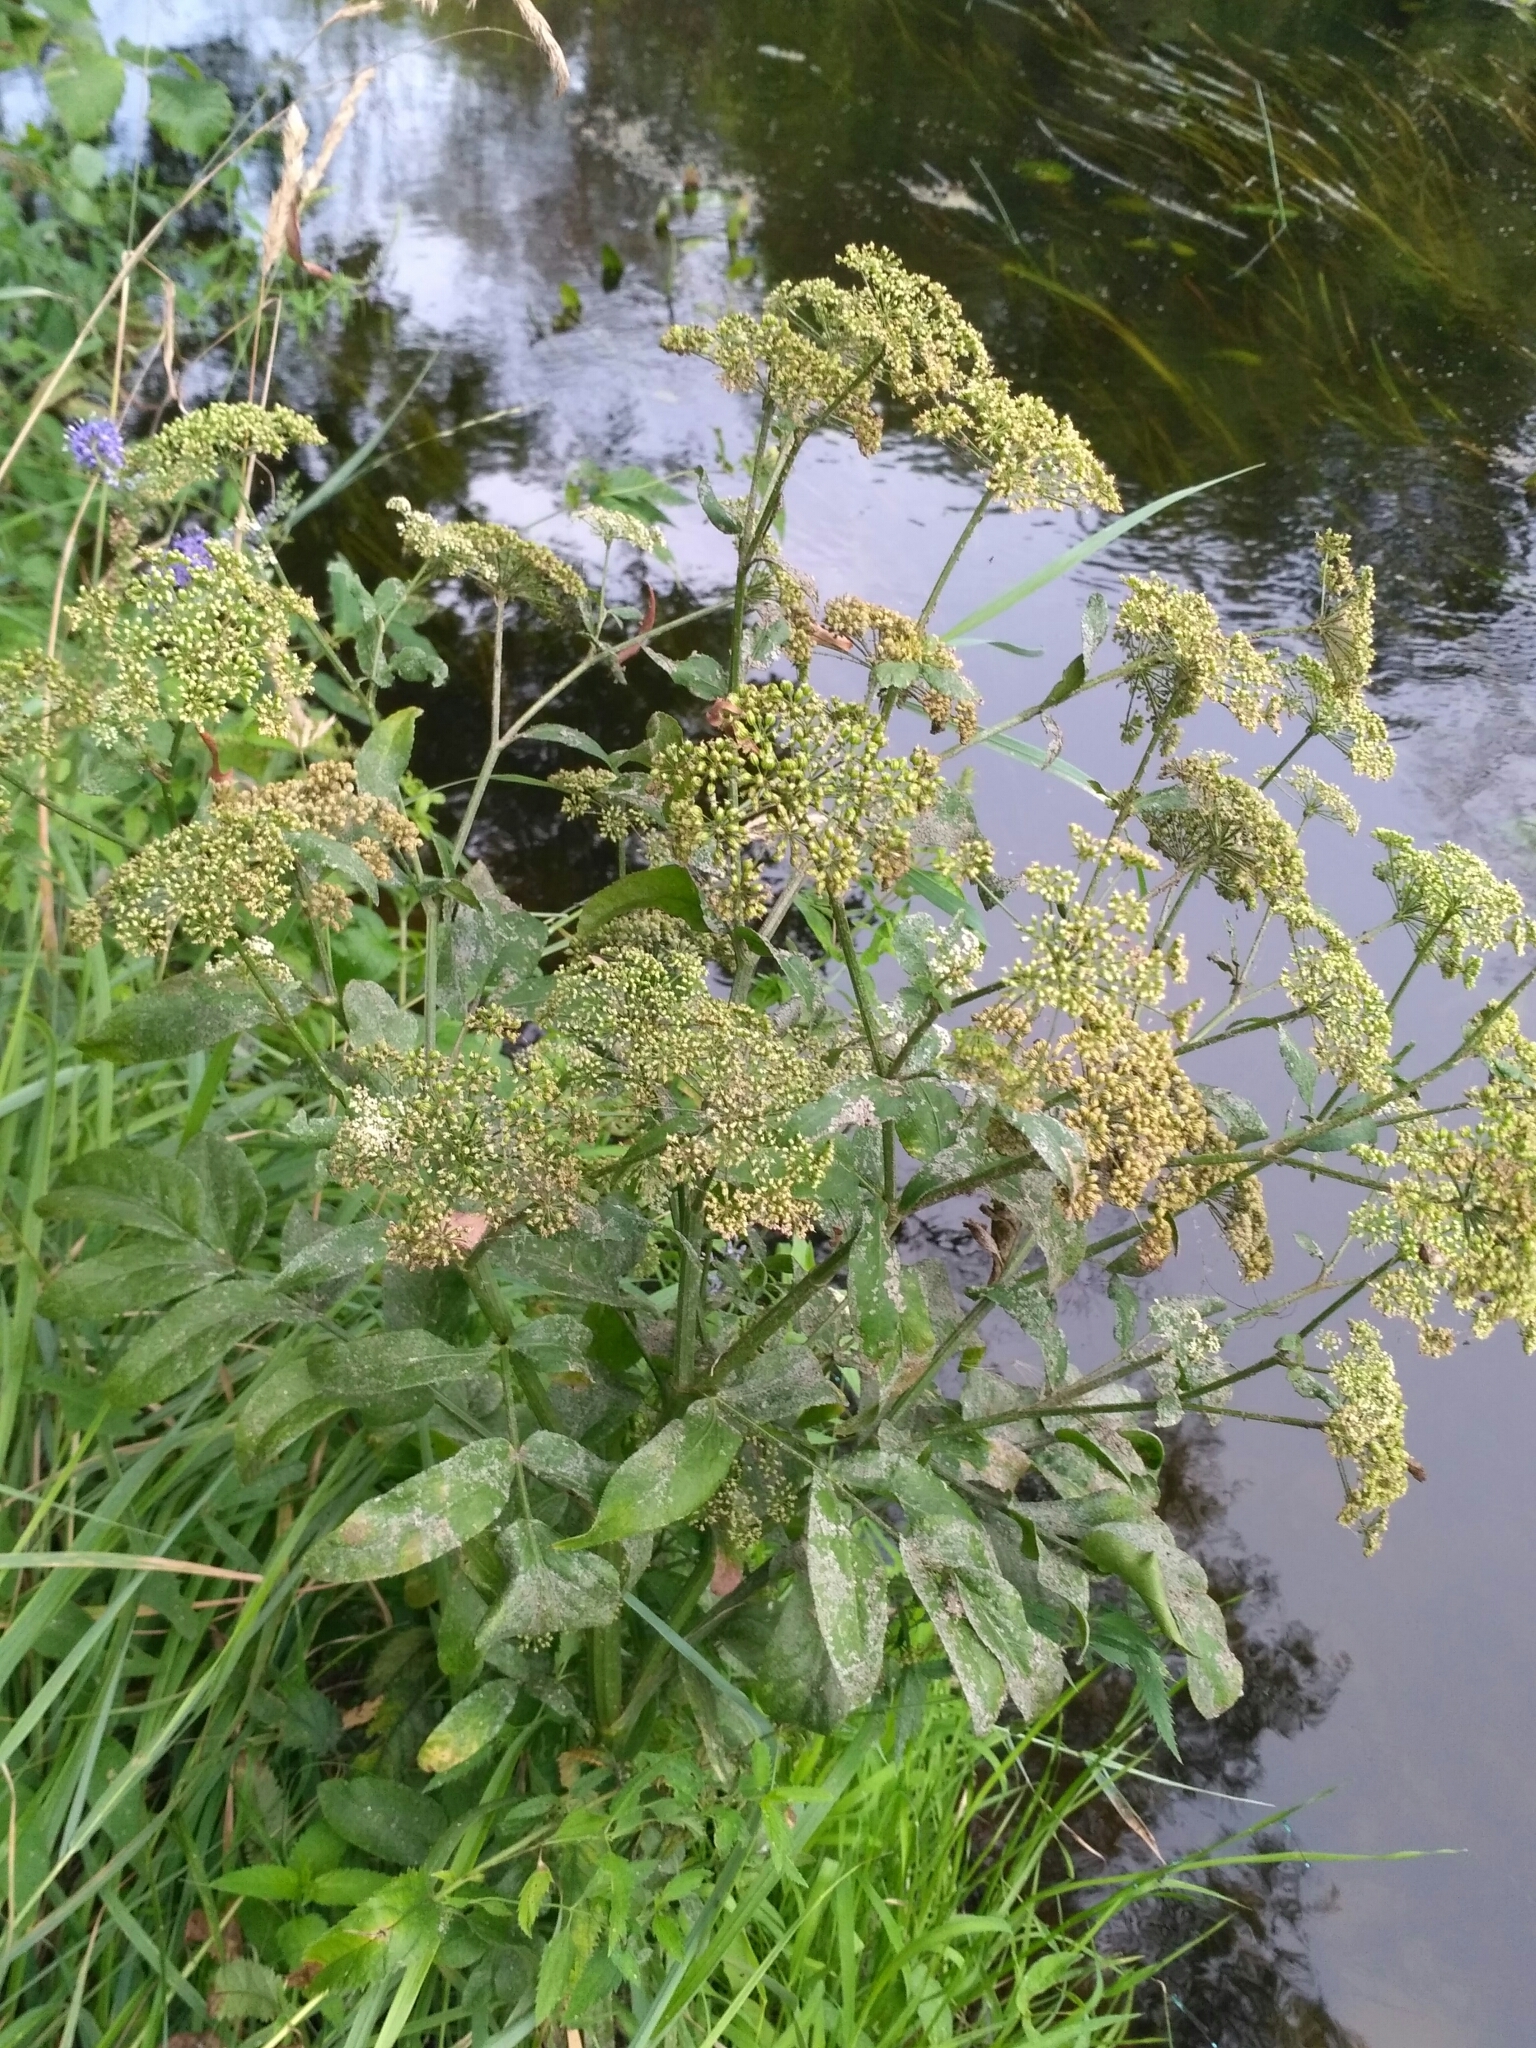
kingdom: Plantae
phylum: Tracheophyta
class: Magnoliopsida
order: Apiales
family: Apiaceae
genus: Sium
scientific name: Sium latifolium
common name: Greater water-parsnip
